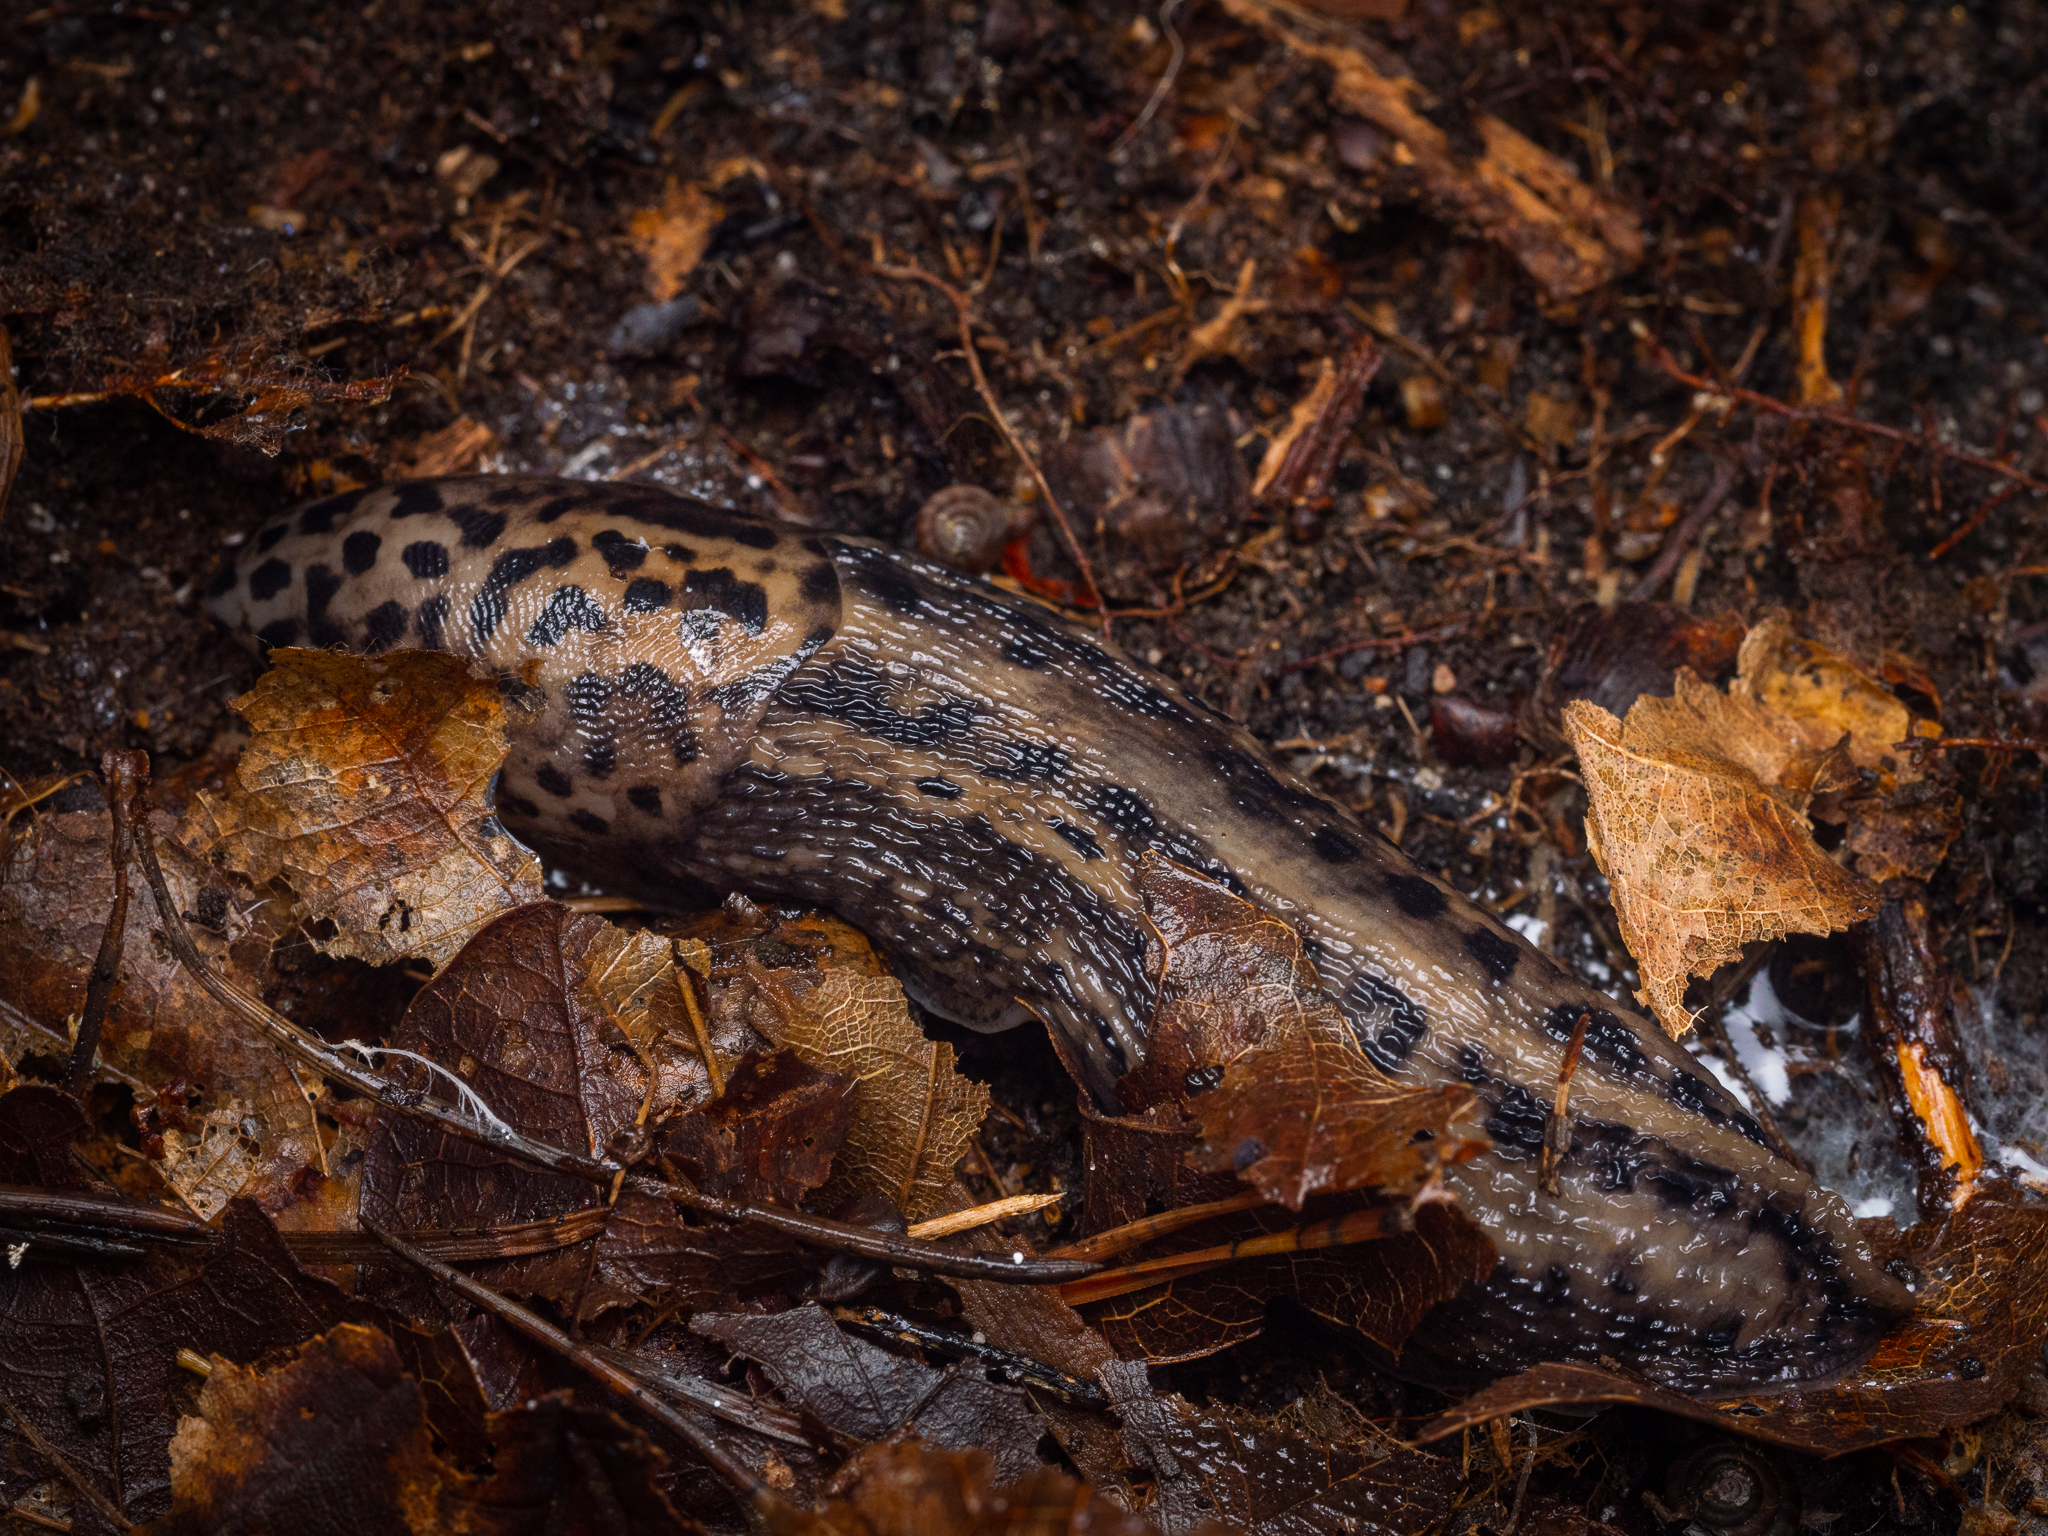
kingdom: Animalia
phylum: Mollusca
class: Gastropoda
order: Stylommatophora
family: Limacidae
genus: Limax
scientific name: Limax maximus
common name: Great grey slug
